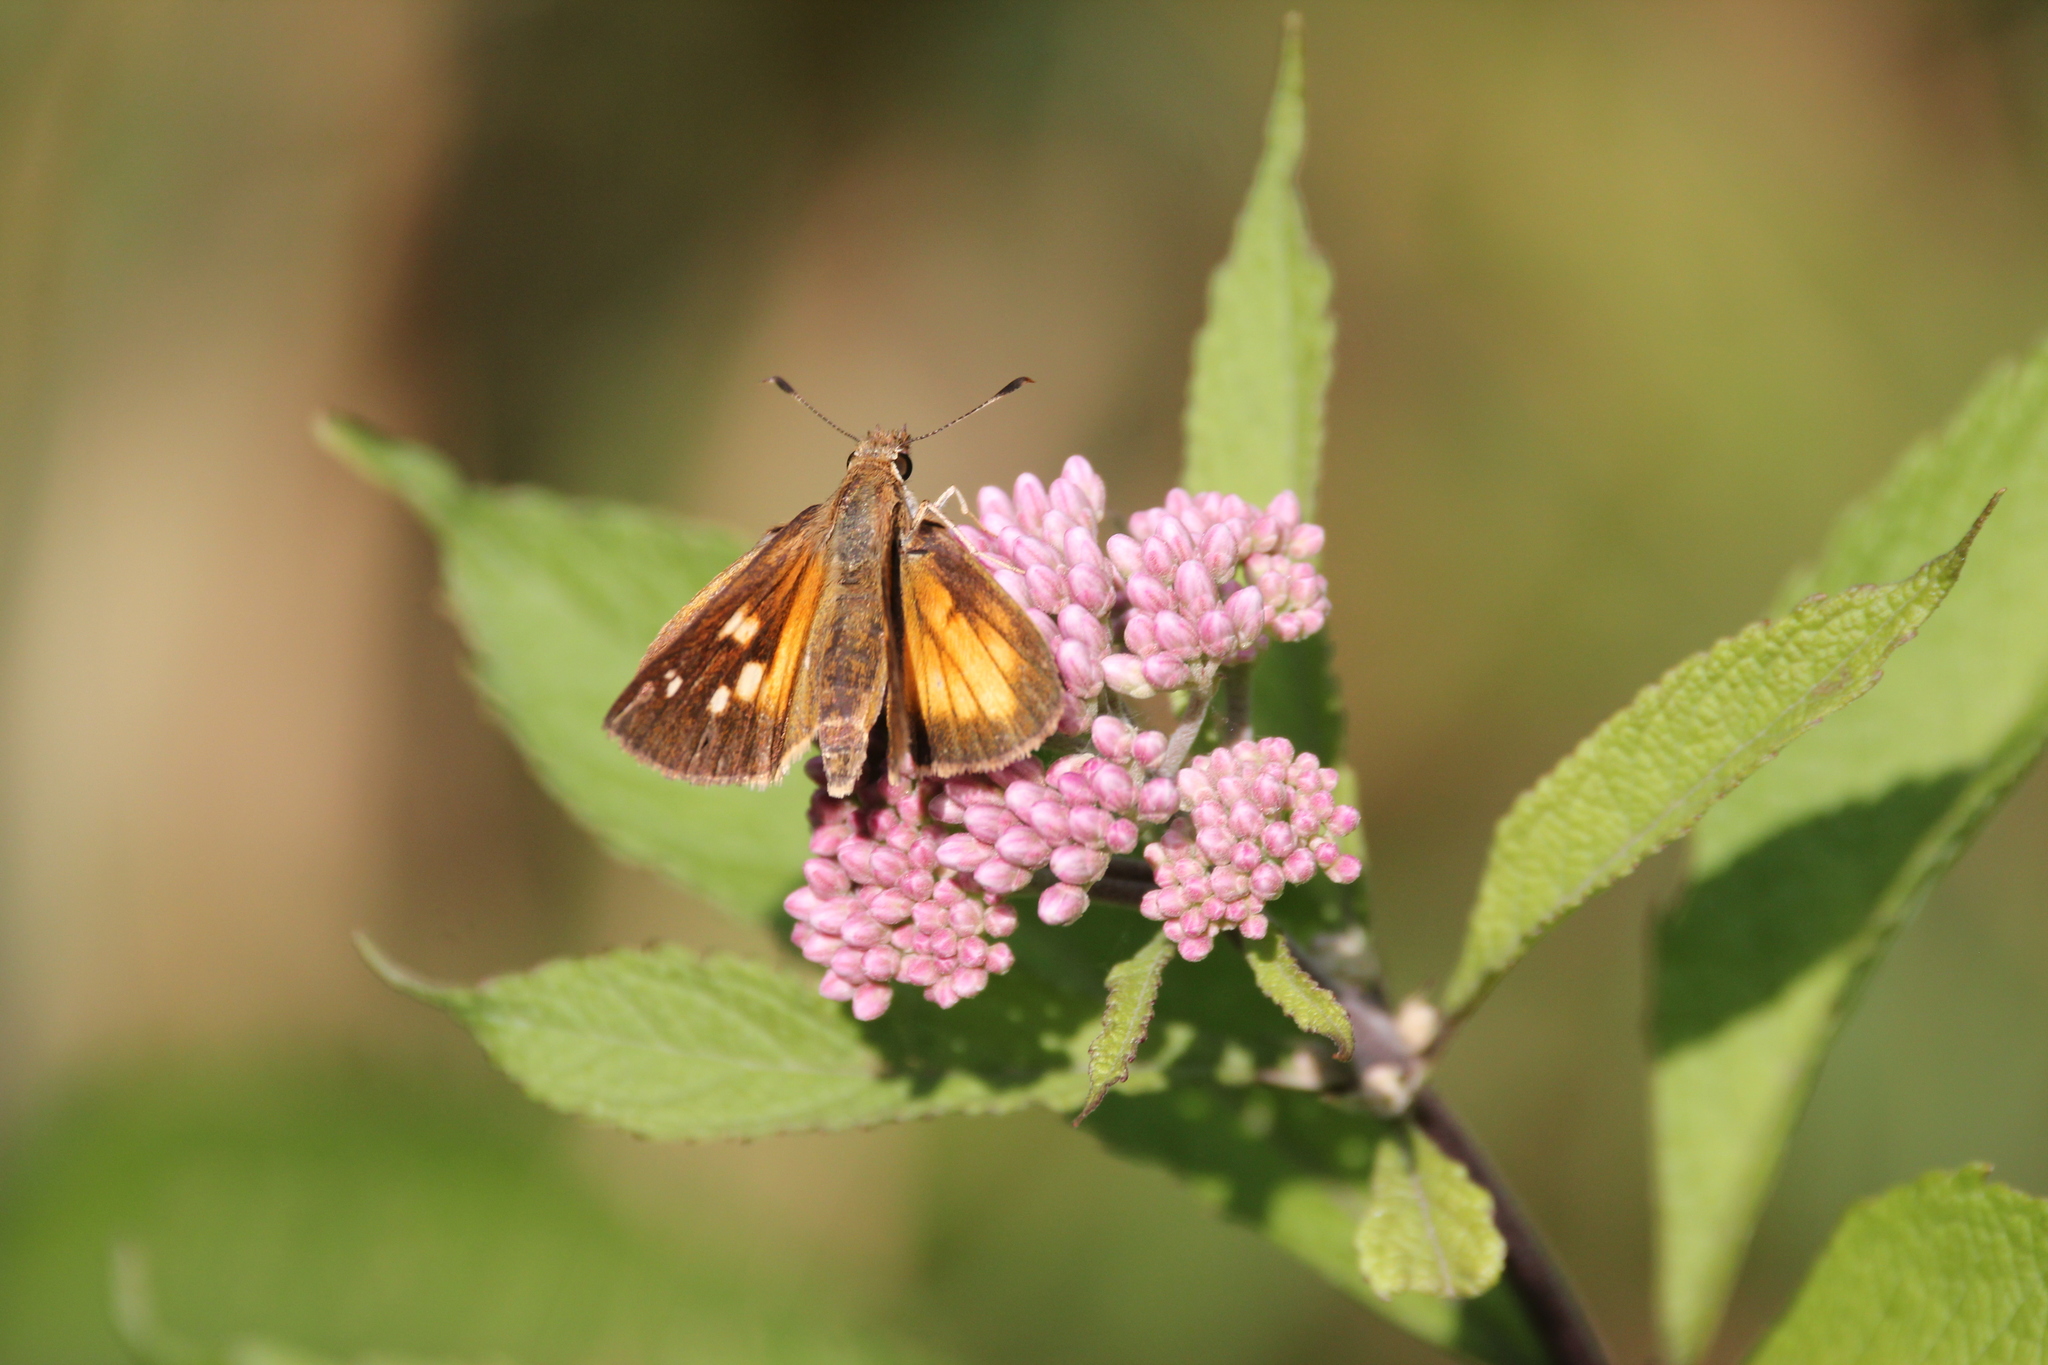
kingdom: Animalia
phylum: Arthropoda
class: Insecta
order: Lepidoptera
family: Hesperiidae
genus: Poanes
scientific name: Poanes viator
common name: Broad-winged skipper
